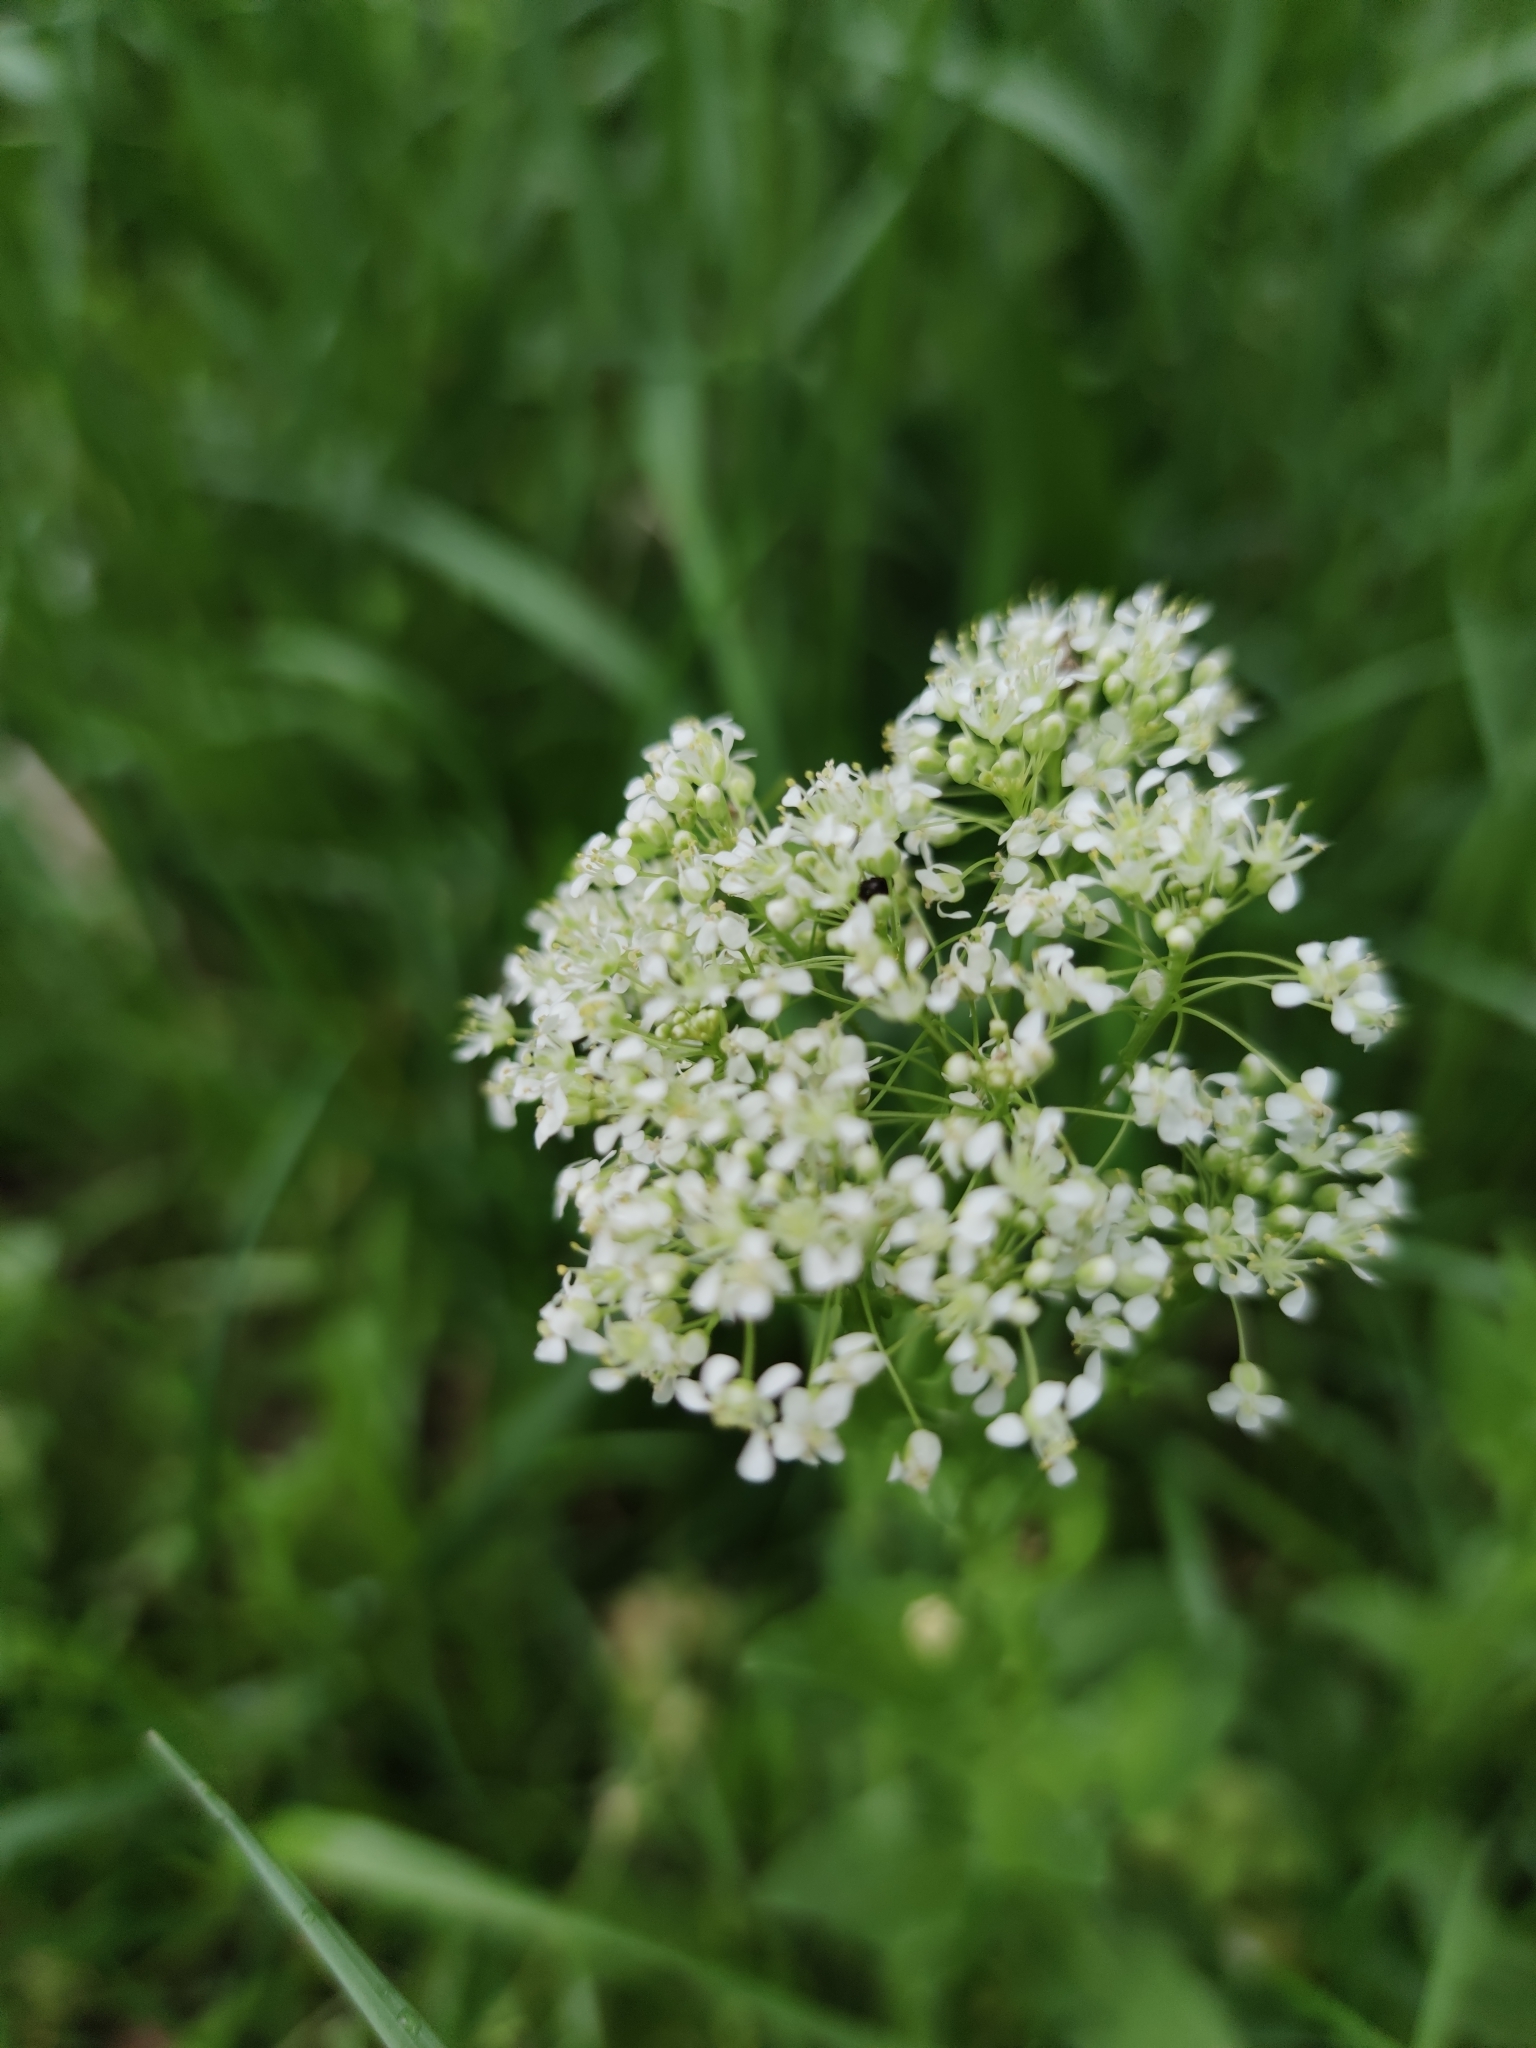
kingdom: Plantae
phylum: Tracheophyta
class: Magnoliopsida
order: Brassicales
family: Brassicaceae
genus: Lepidium
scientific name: Lepidium draba
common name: Hoary cress
